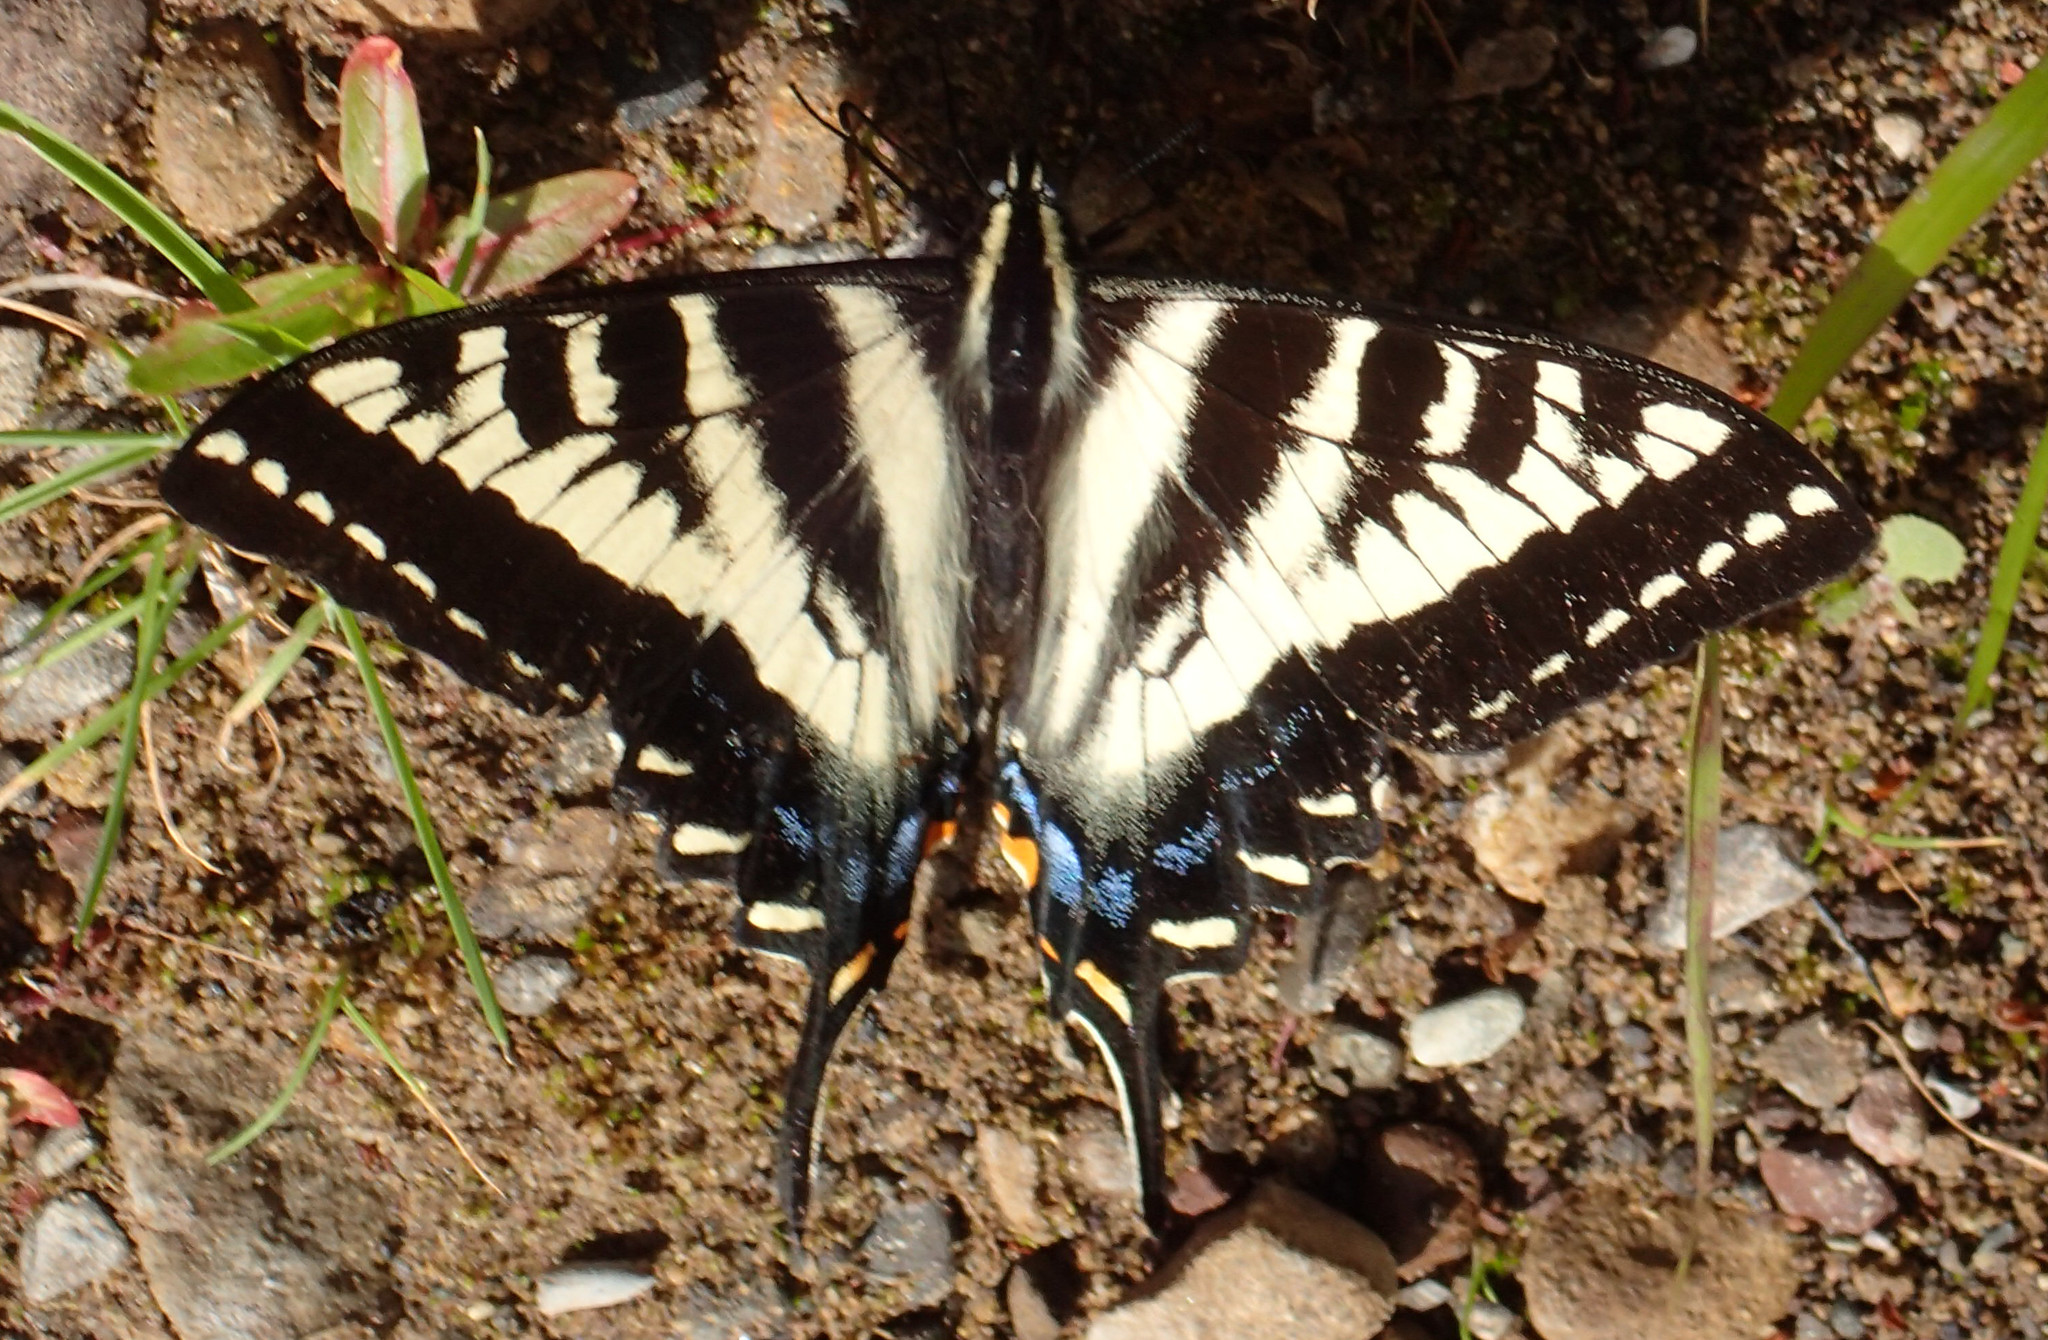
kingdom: Animalia
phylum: Arthropoda
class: Insecta
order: Lepidoptera
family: Papilionidae
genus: Papilio
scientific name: Papilio eurymedon
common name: Pale tiger swallowtail
